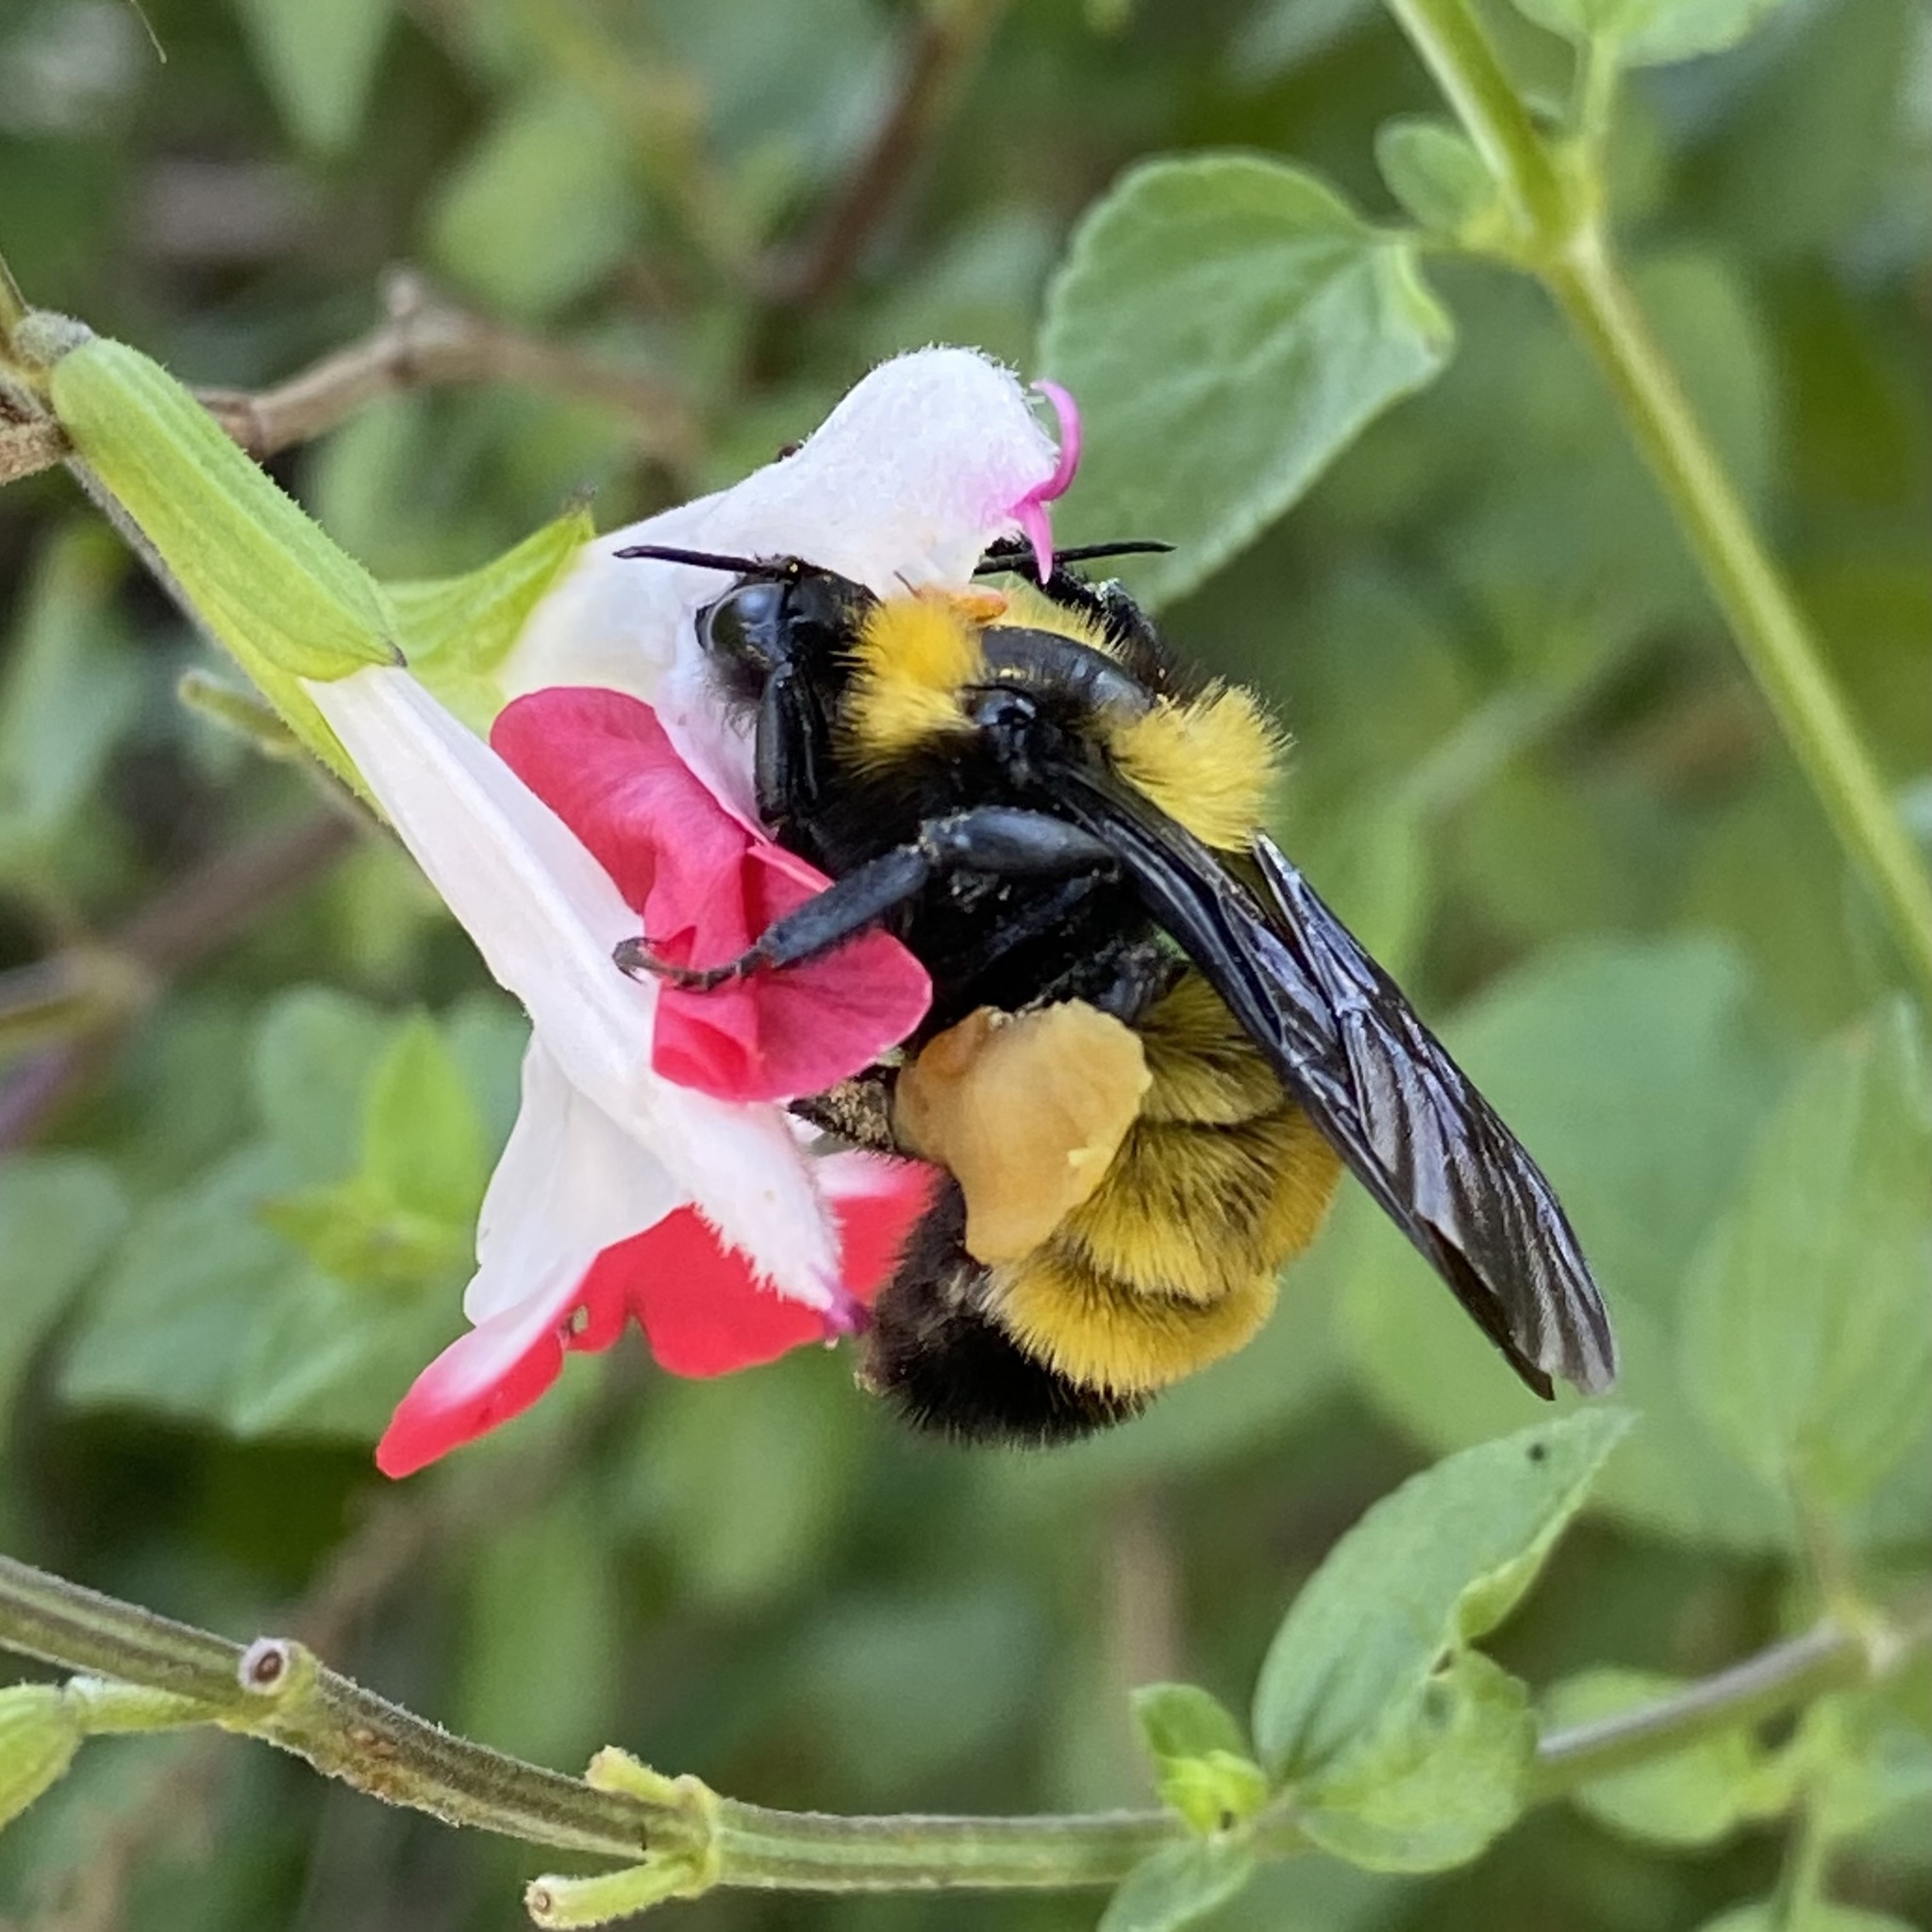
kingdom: Animalia
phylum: Arthropoda
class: Insecta
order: Hymenoptera
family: Apidae
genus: Bombus
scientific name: Bombus sonorus
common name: Sonoran bumble bee
